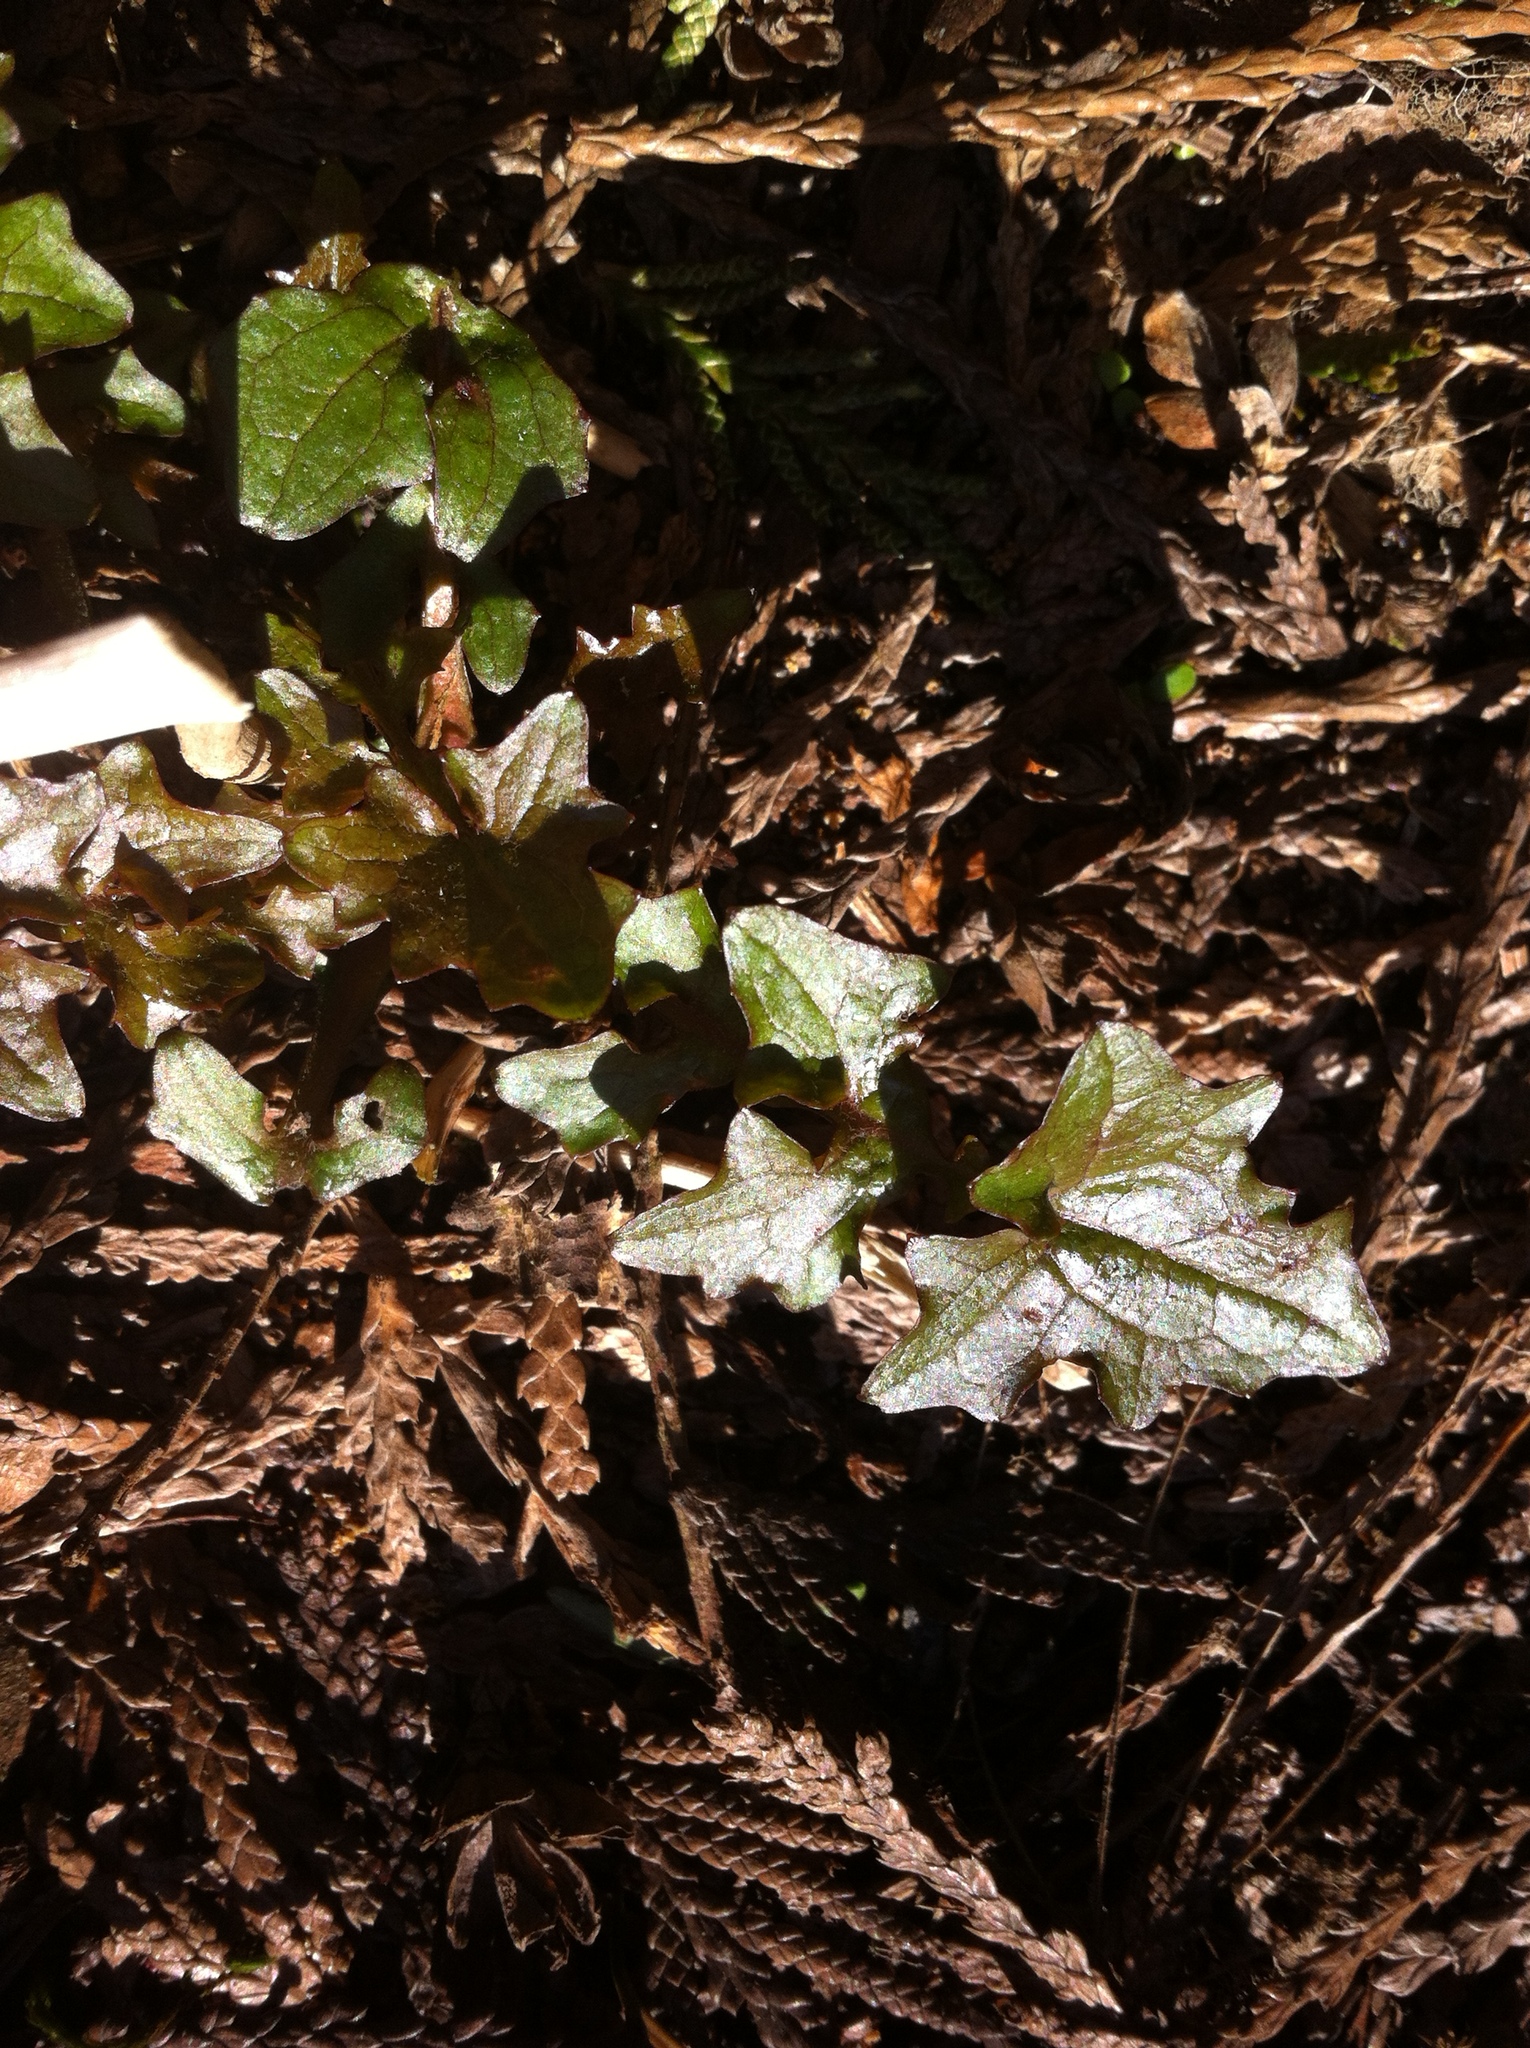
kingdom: Plantae
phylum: Tracheophyta
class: Magnoliopsida
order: Asterales
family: Asteraceae
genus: Mycelis
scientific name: Mycelis muralis
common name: Wall lettuce
